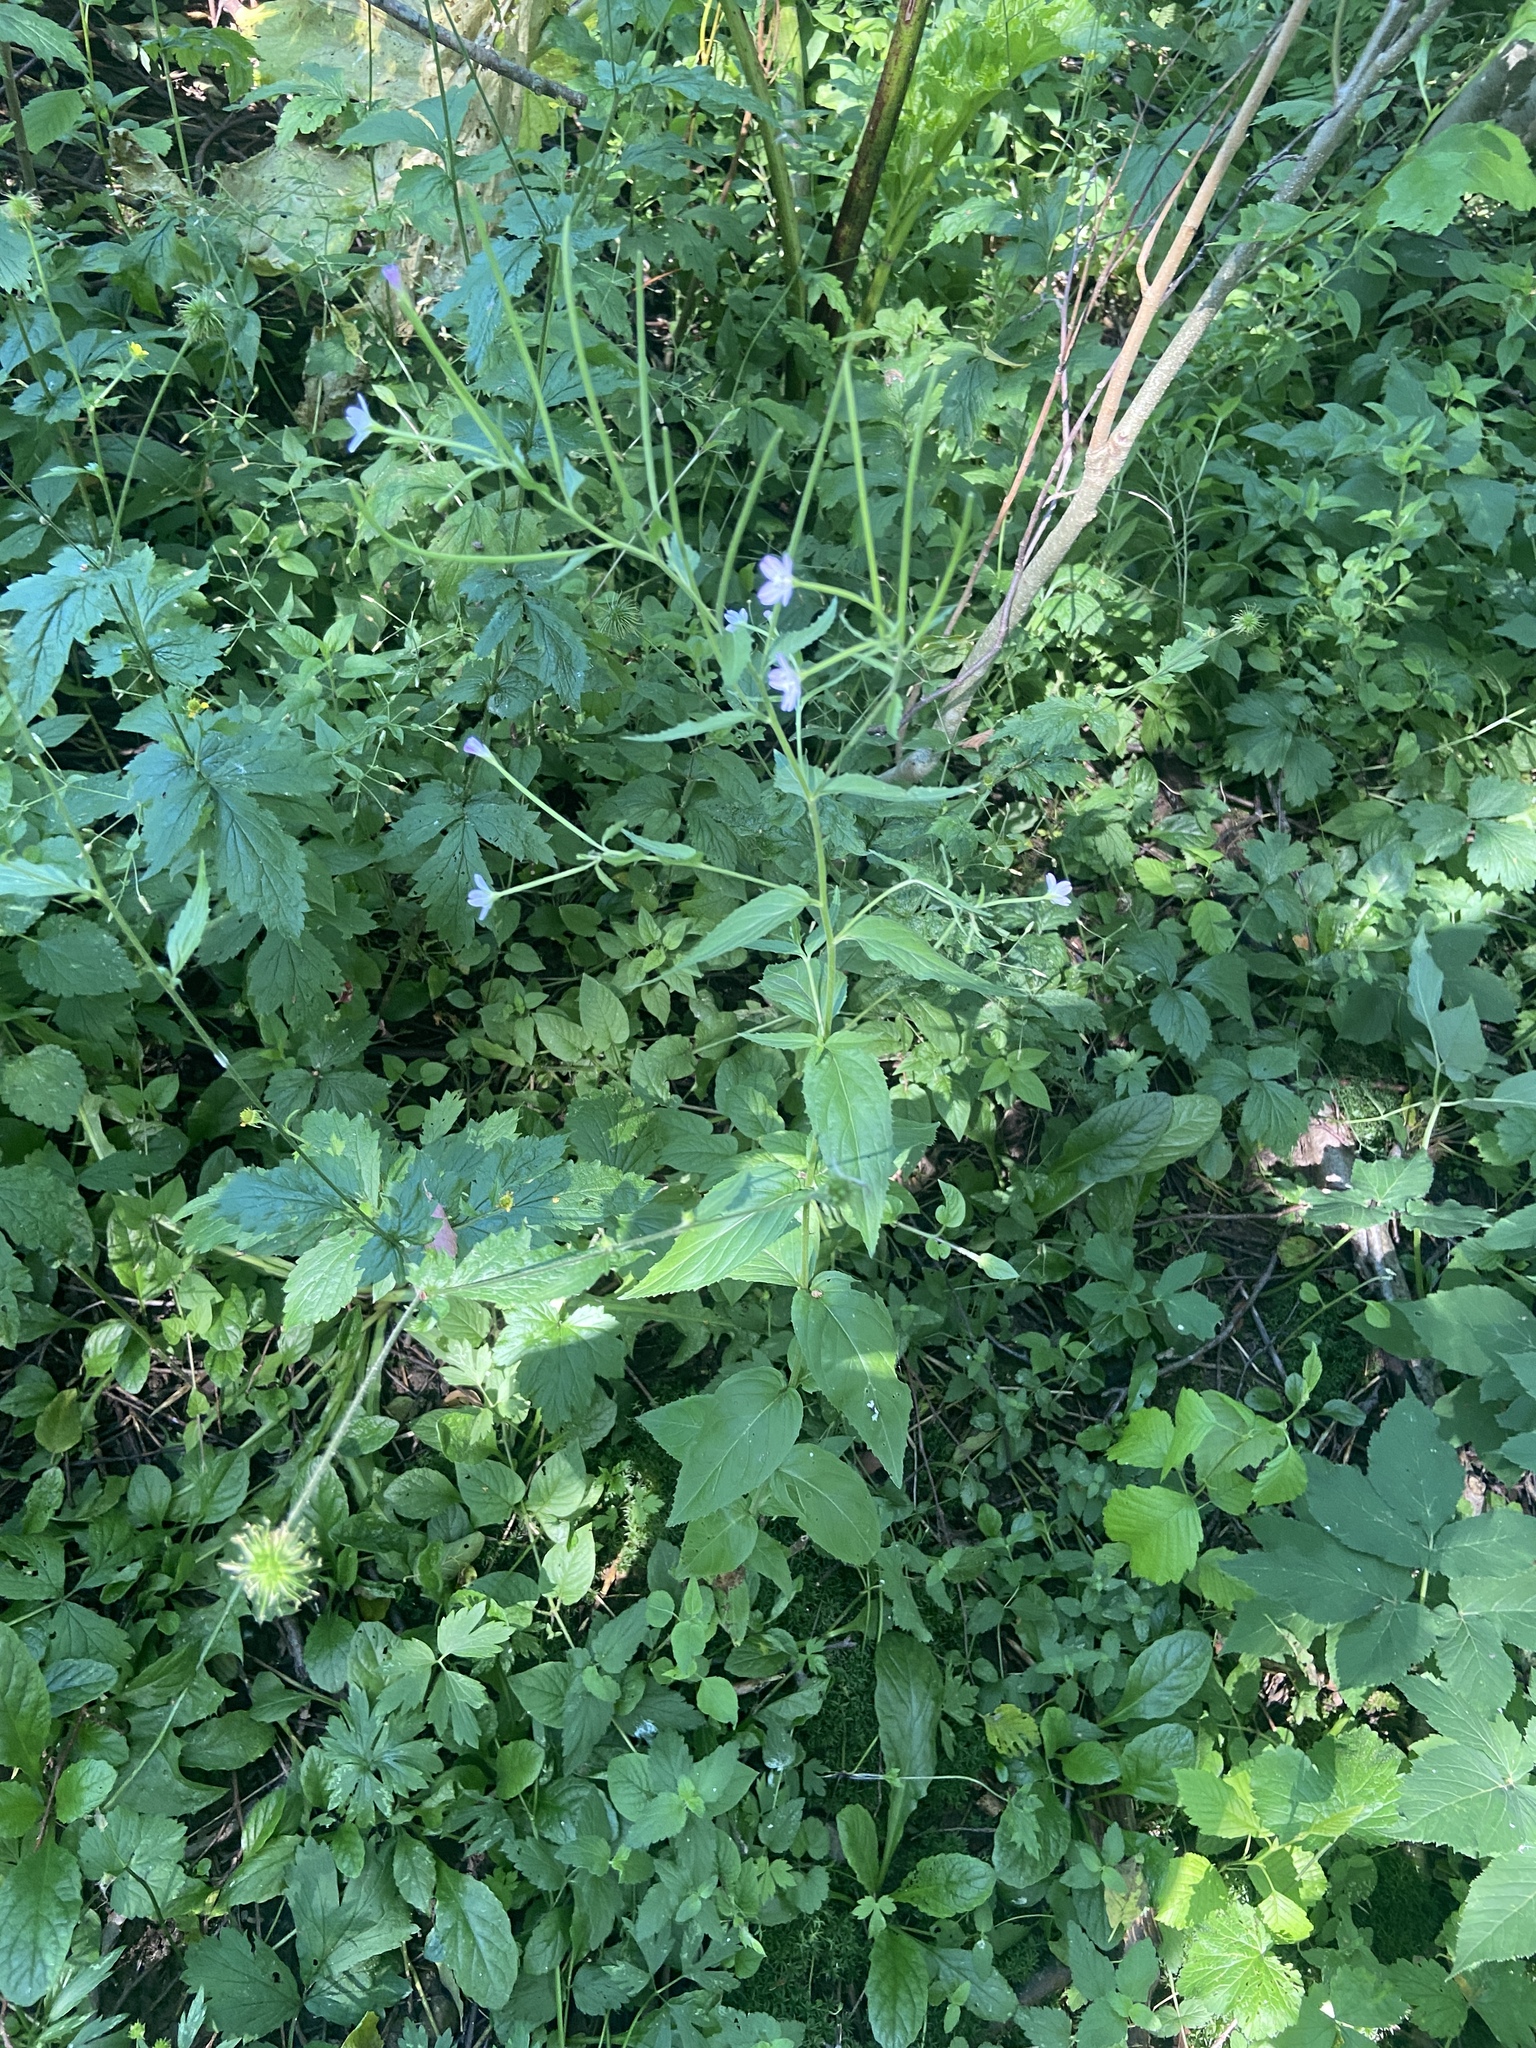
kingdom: Plantae
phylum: Tracheophyta
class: Magnoliopsida
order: Myrtales
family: Onagraceae
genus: Epilobium
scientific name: Epilobium montanum
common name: Broad-leaved willowherb
